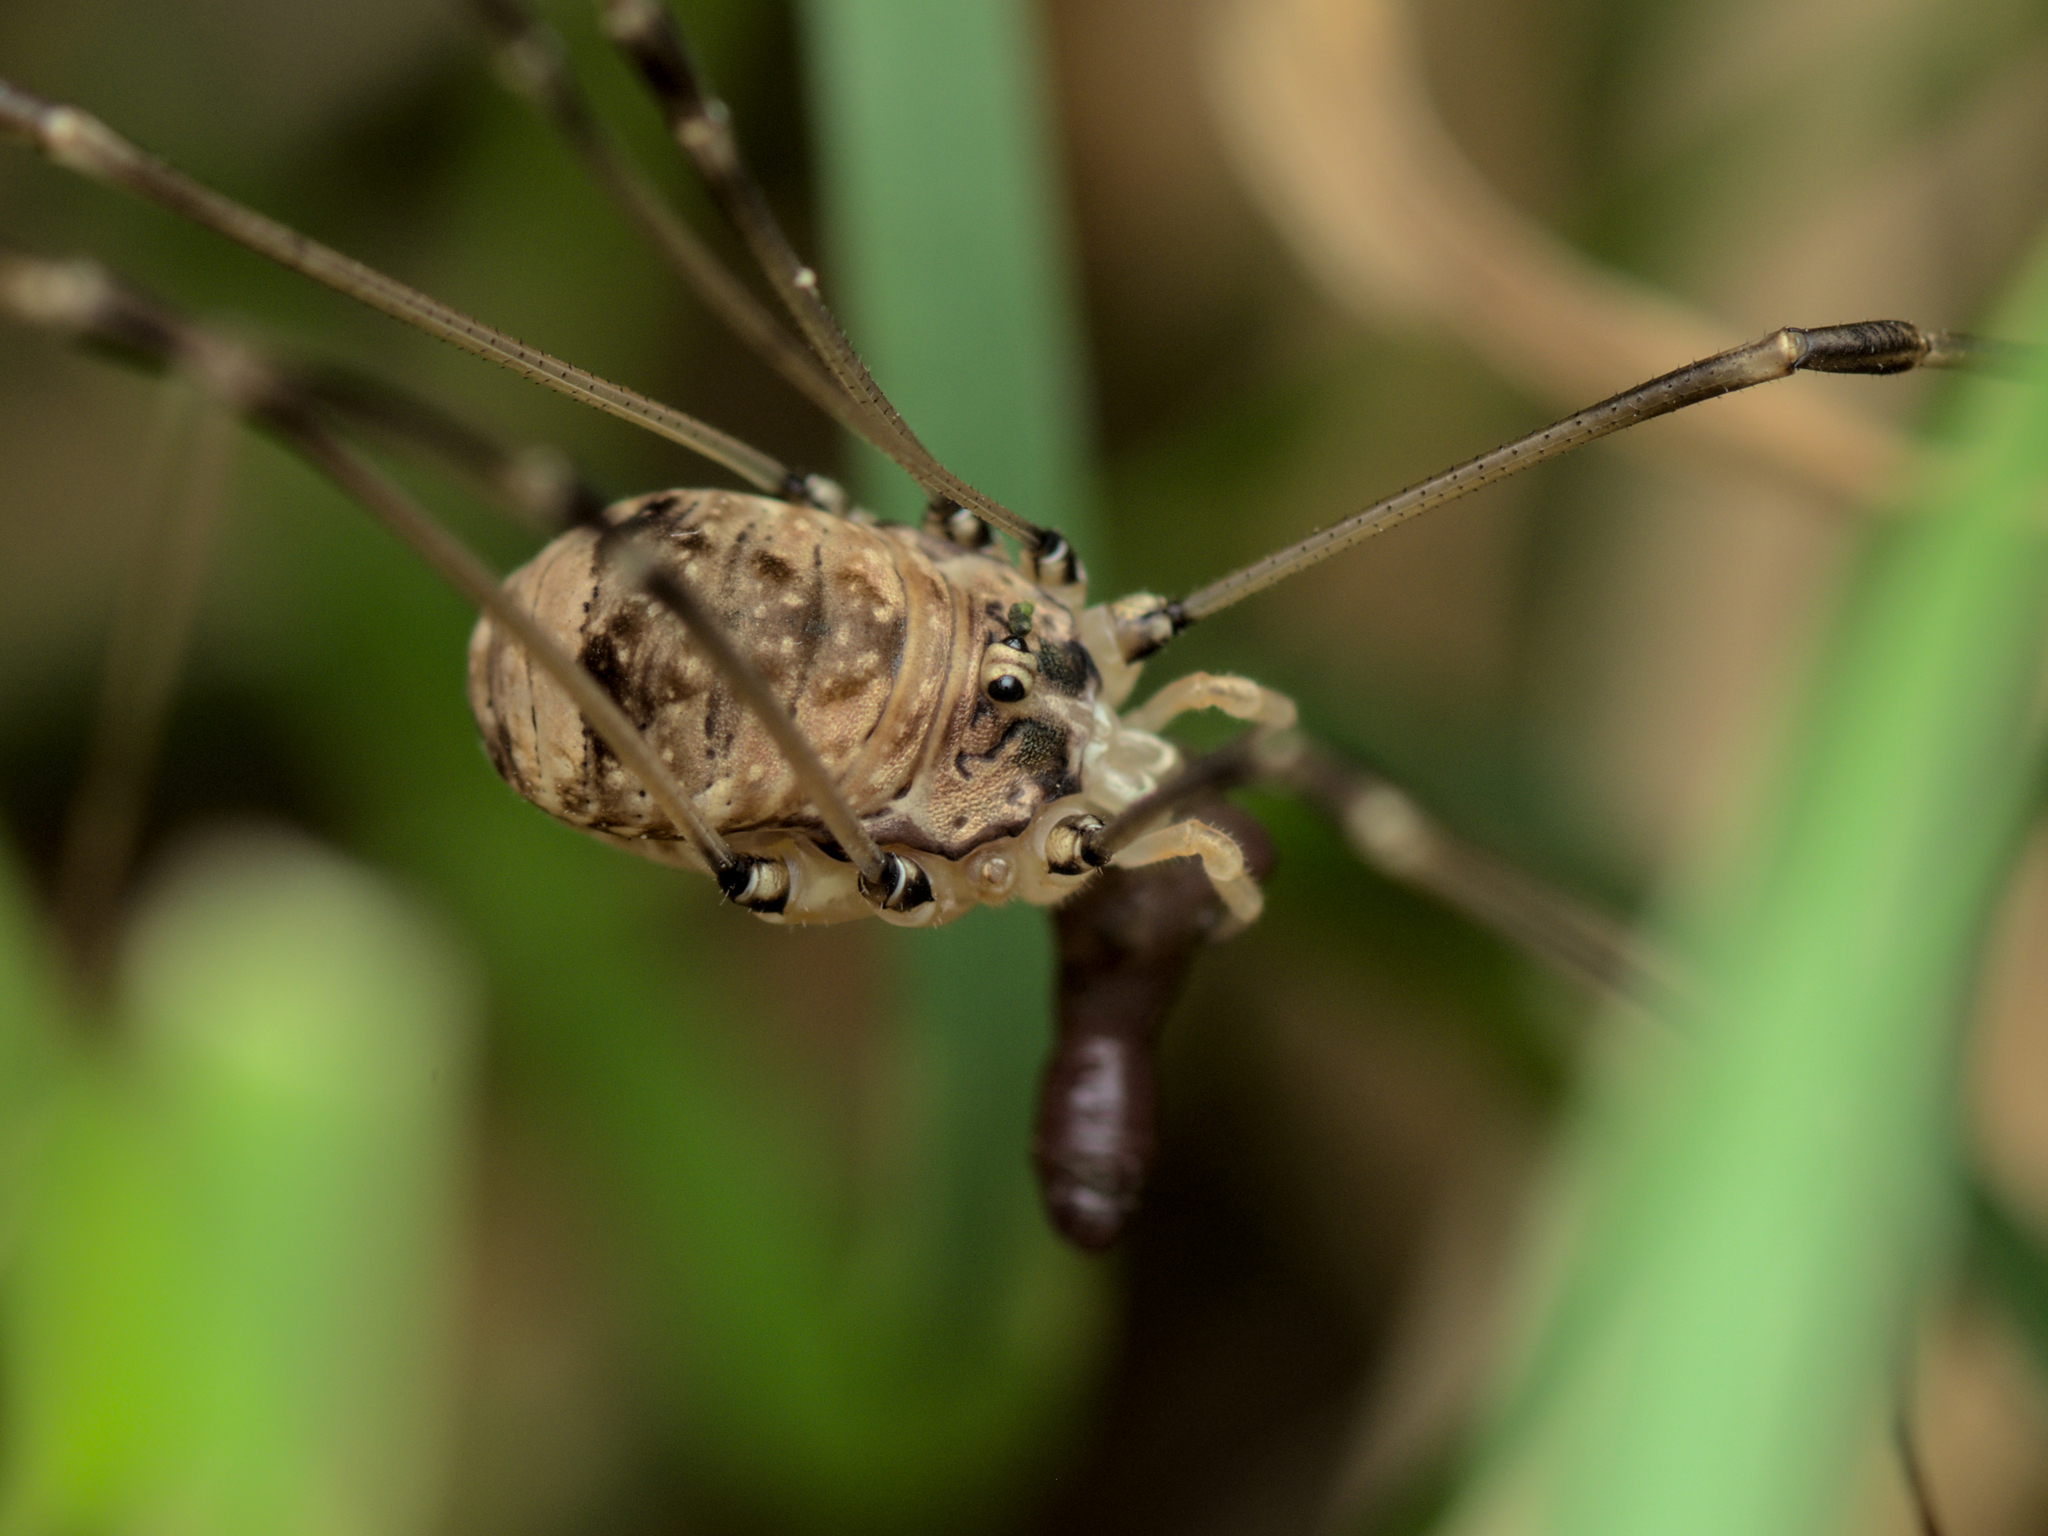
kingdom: Animalia
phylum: Arthropoda
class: Arachnida
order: Opiliones
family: Sclerosomatidae
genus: Leiobunum
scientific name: Leiobunum blackwalli
